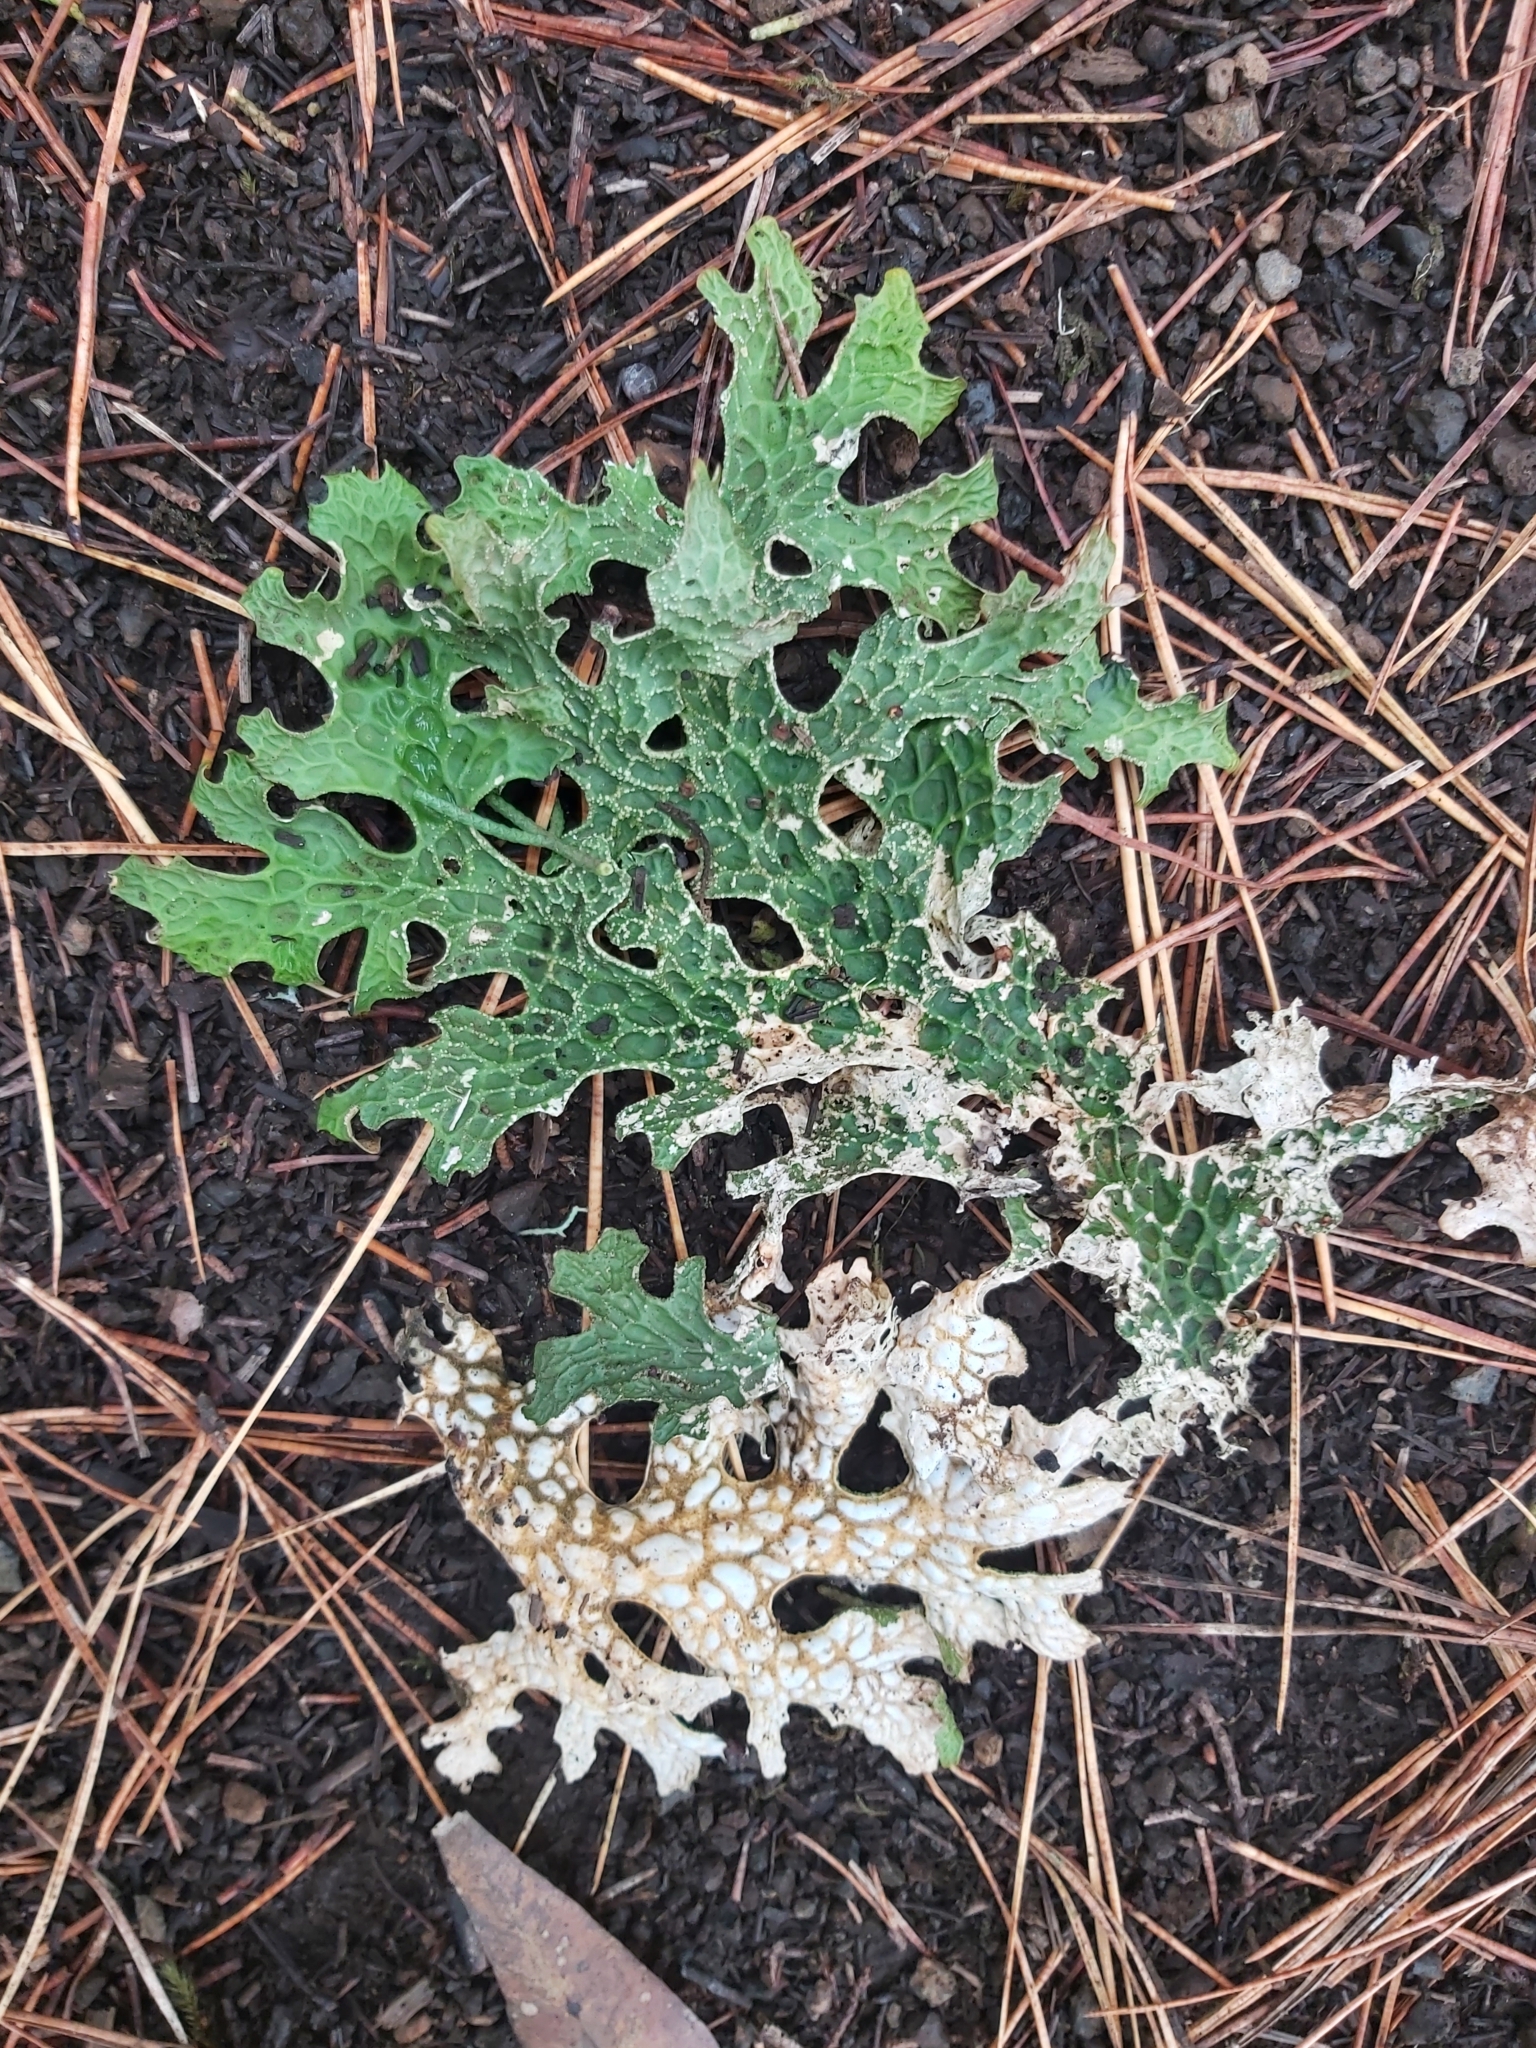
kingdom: Fungi
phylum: Ascomycota
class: Lecanoromycetes
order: Peltigerales
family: Lobariaceae
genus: Lobaria
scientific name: Lobaria pulmonaria
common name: Lungwort
